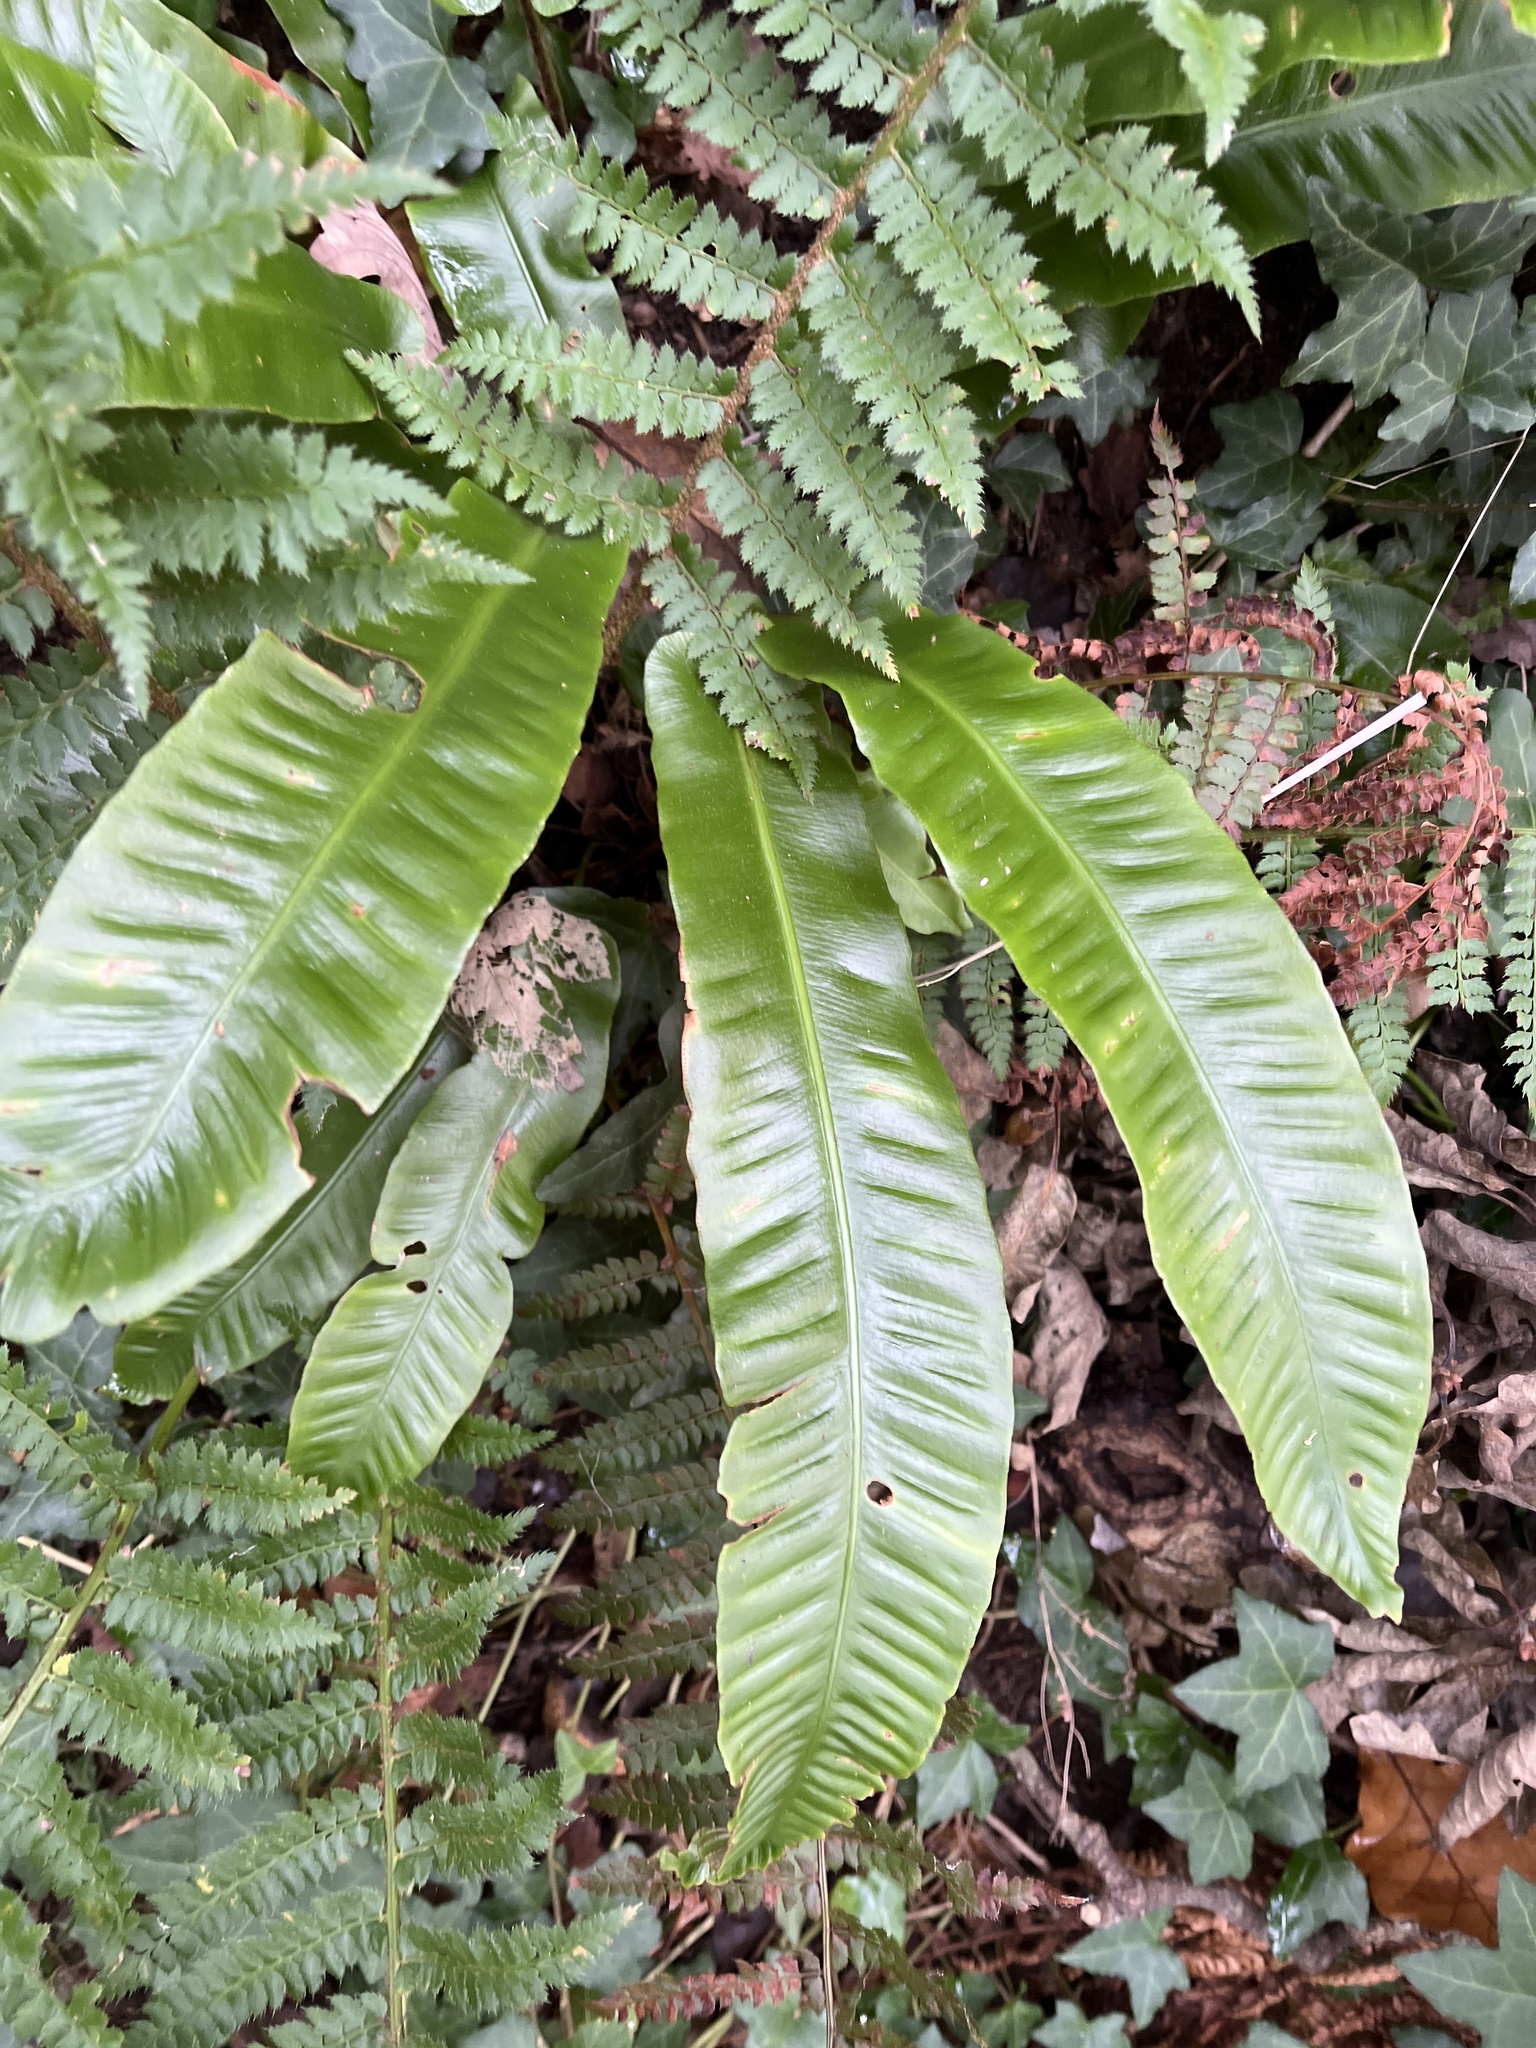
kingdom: Plantae
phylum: Tracheophyta
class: Polypodiopsida
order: Polypodiales
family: Aspleniaceae
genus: Asplenium
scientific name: Asplenium scolopendrium
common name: Hart's-tongue fern
